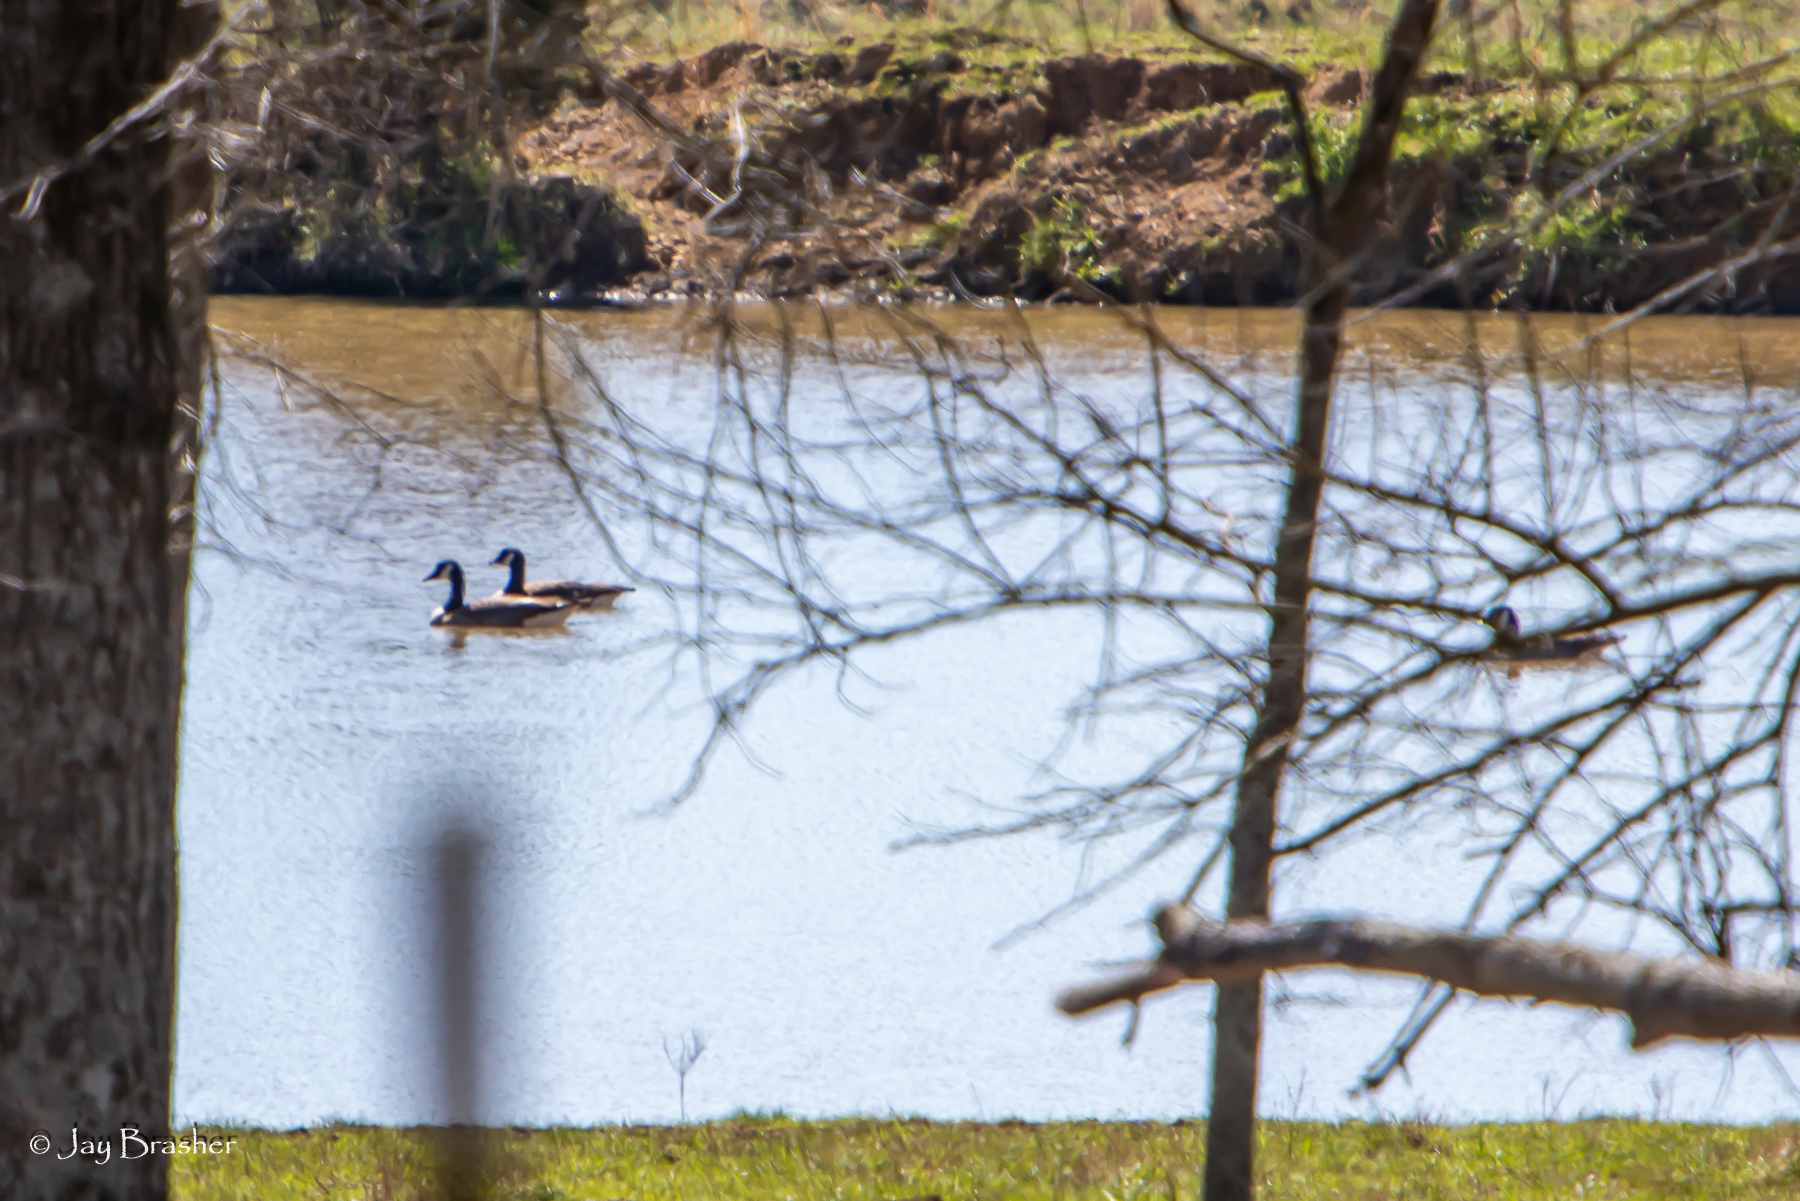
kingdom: Animalia
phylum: Chordata
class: Aves
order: Anseriformes
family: Anatidae
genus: Branta
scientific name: Branta canadensis
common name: Canada goose
